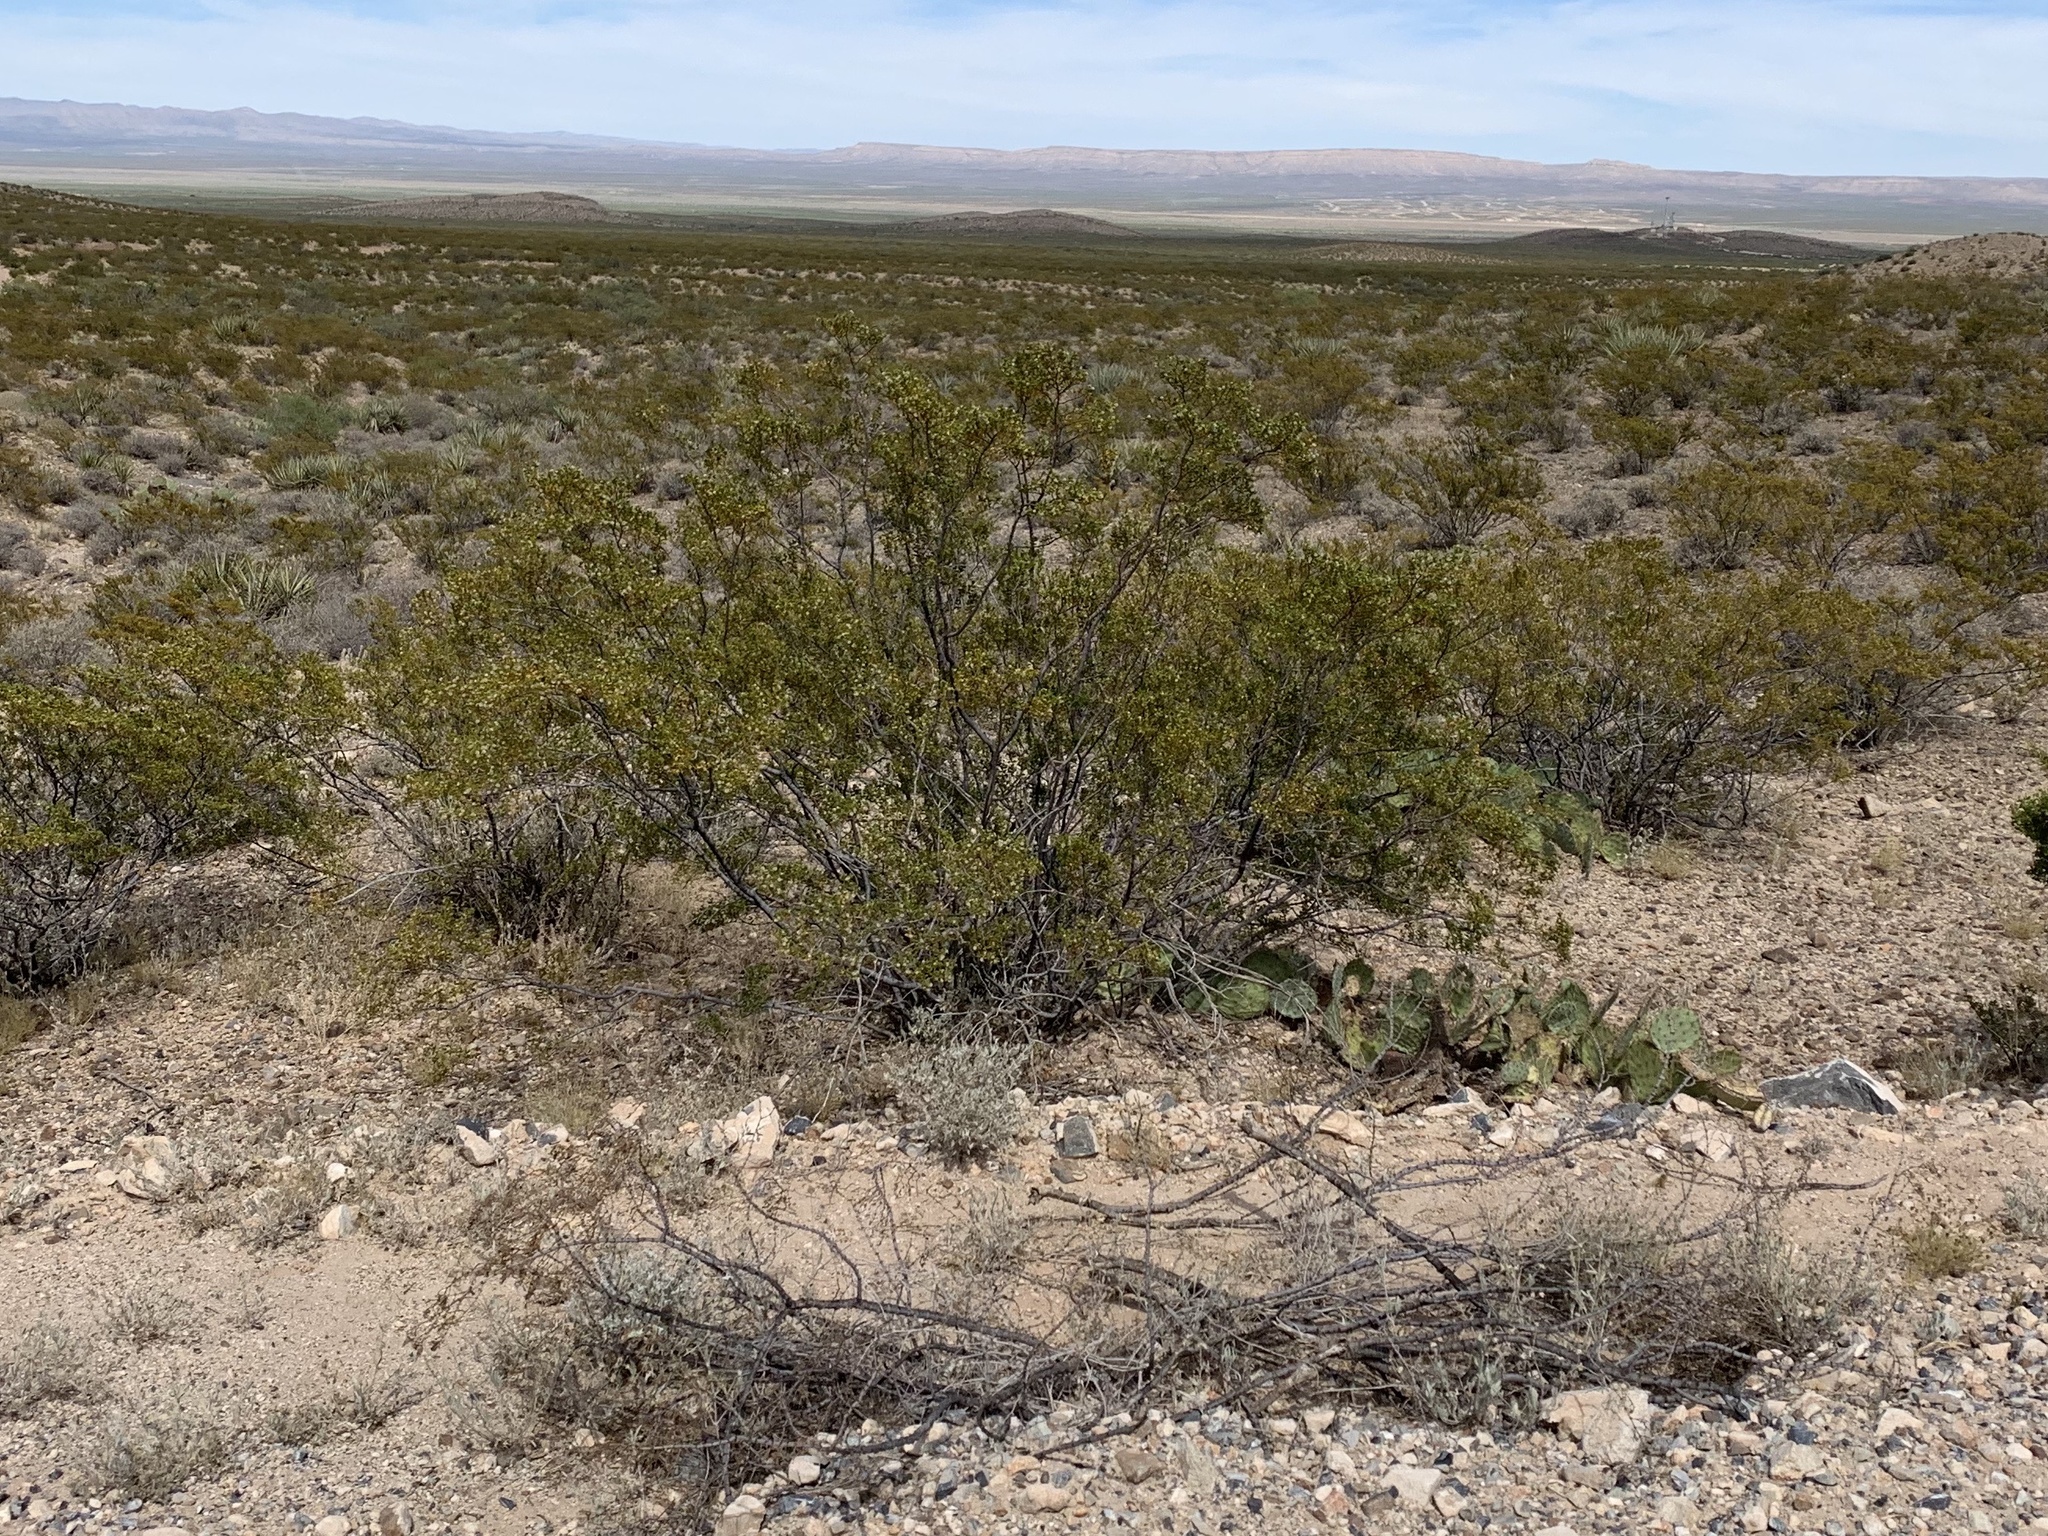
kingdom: Plantae
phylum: Tracheophyta
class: Magnoliopsida
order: Zygophyllales
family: Zygophyllaceae
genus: Larrea
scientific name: Larrea tridentata
